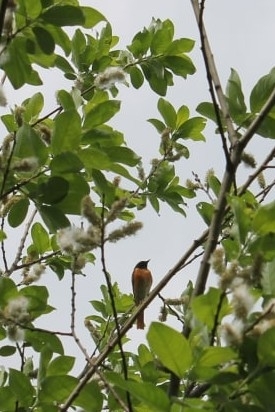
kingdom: Animalia
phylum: Chordata
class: Aves
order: Passeriformes
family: Muscicapidae
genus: Phoenicurus
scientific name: Phoenicurus phoenicurus
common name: Common redstart
